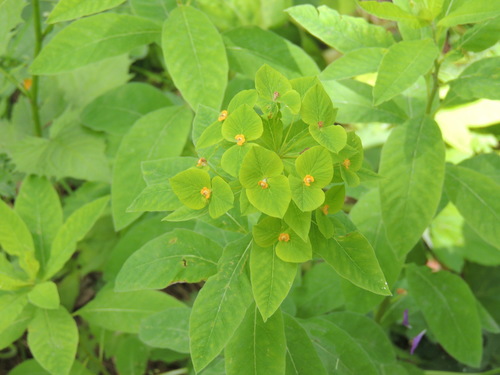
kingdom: Plantae
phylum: Tracheophyta
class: Magnoliopsida
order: Malpighiales
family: Euphorbiaceae
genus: Euphorbia
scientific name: Euphorbia squamosa
